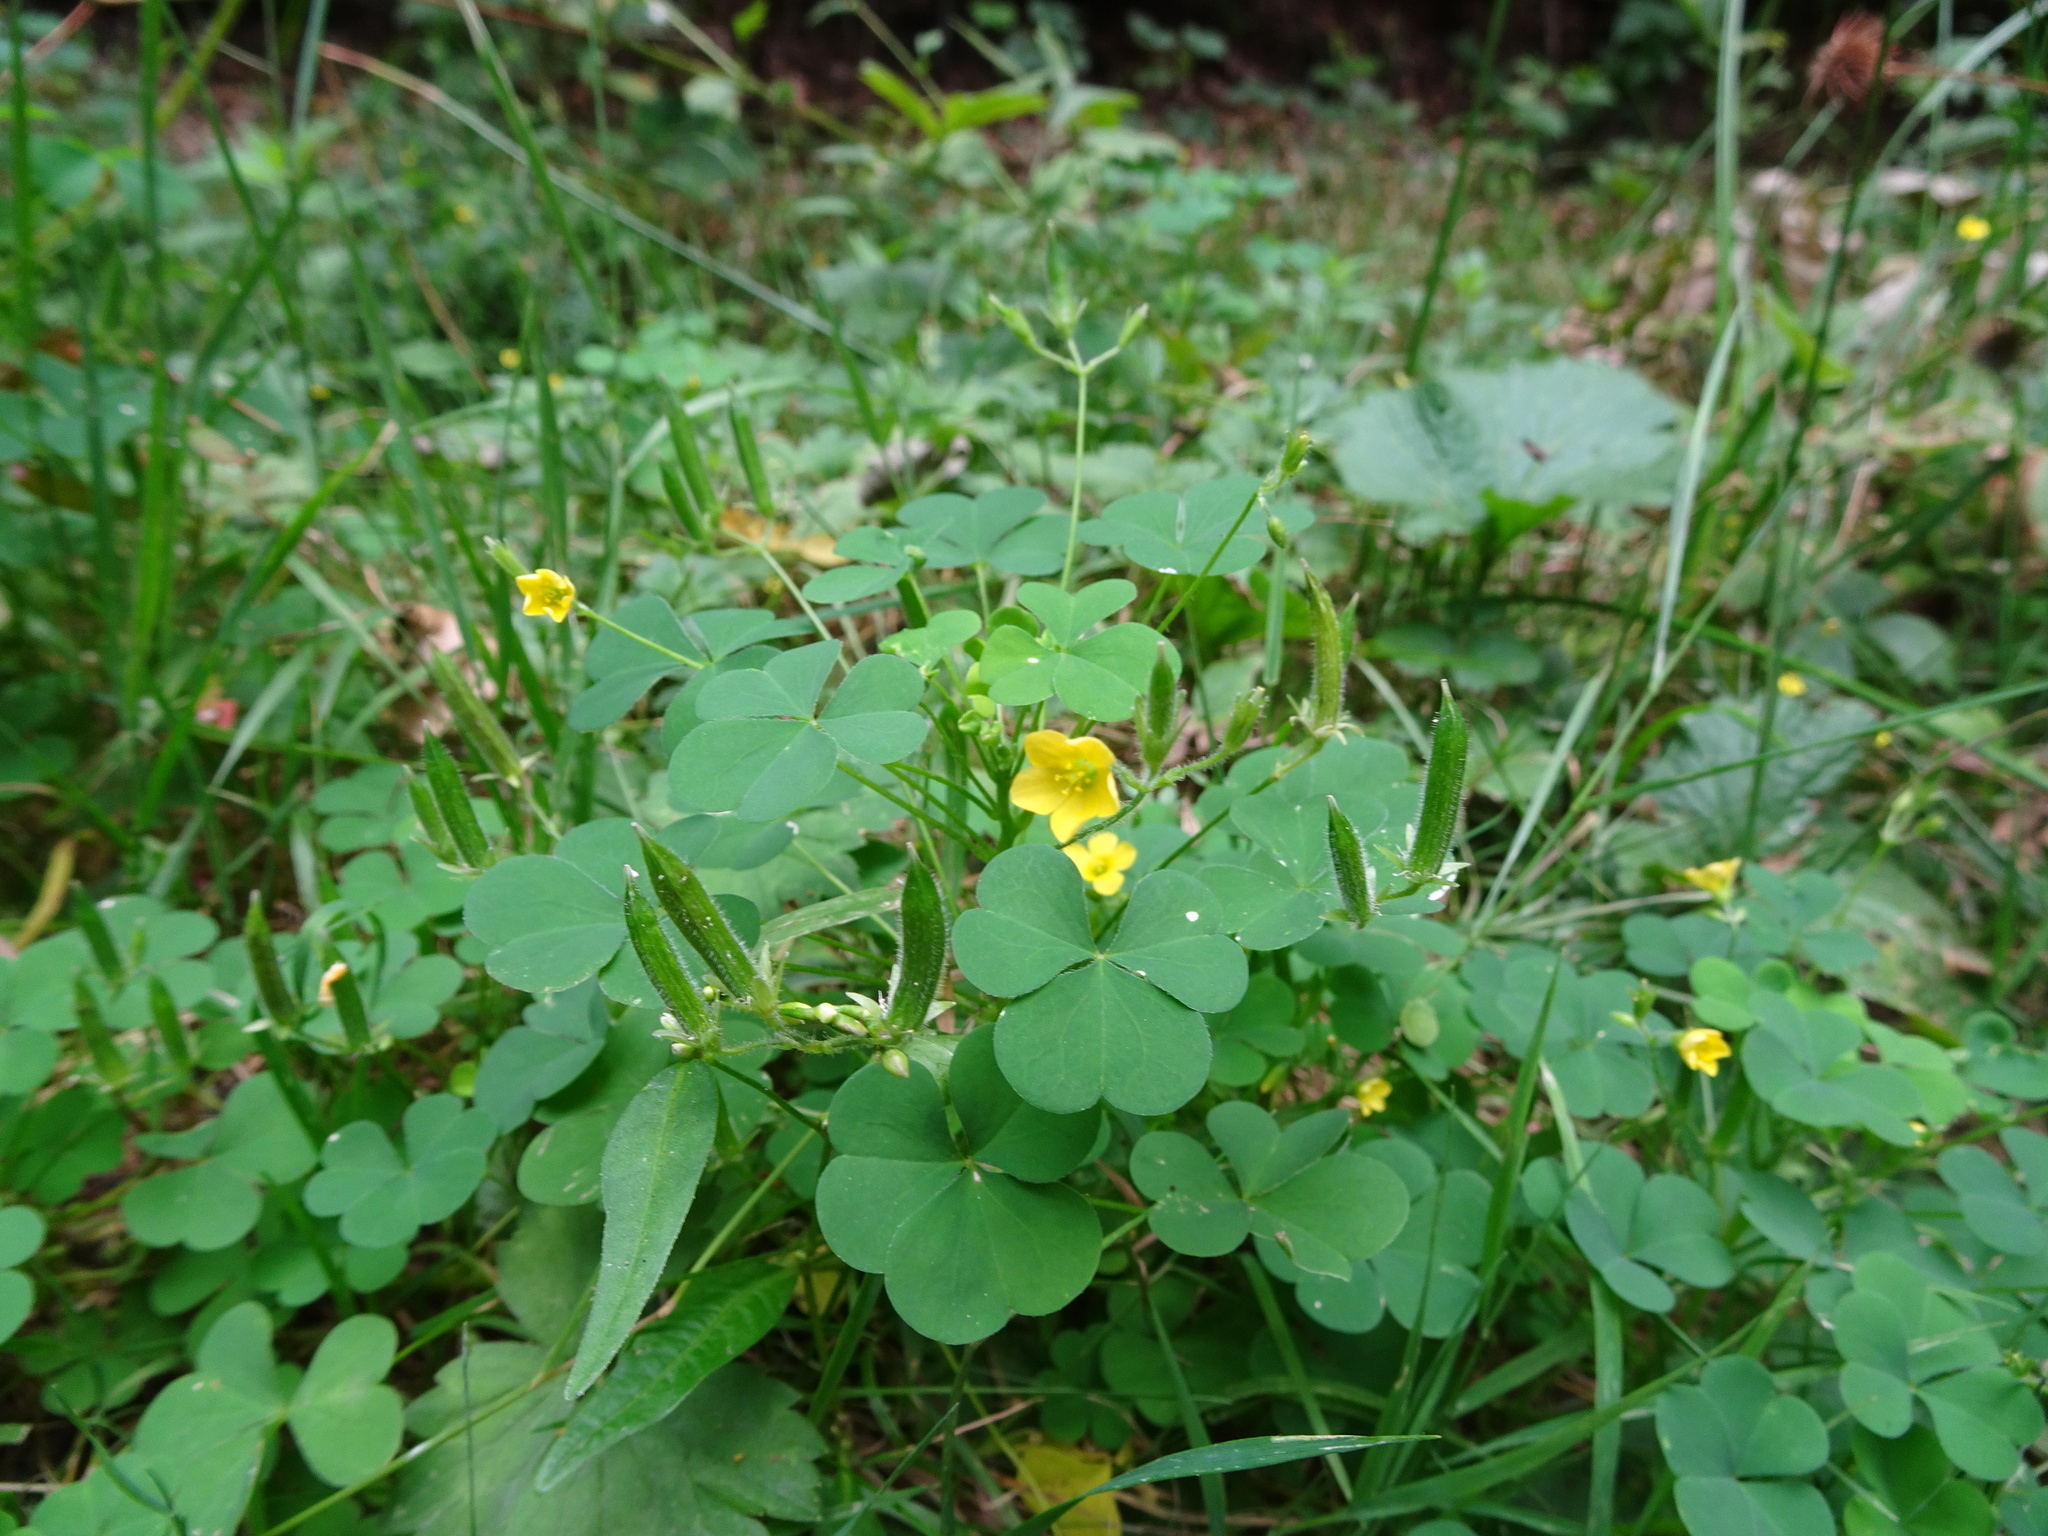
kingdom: Plantae
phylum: Tracheophyta
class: Magnoliopsida
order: Oxalidales
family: Oxalidaceae
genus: Oxalis
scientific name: Oxalis stricta
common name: Upright yellow-sorrel
